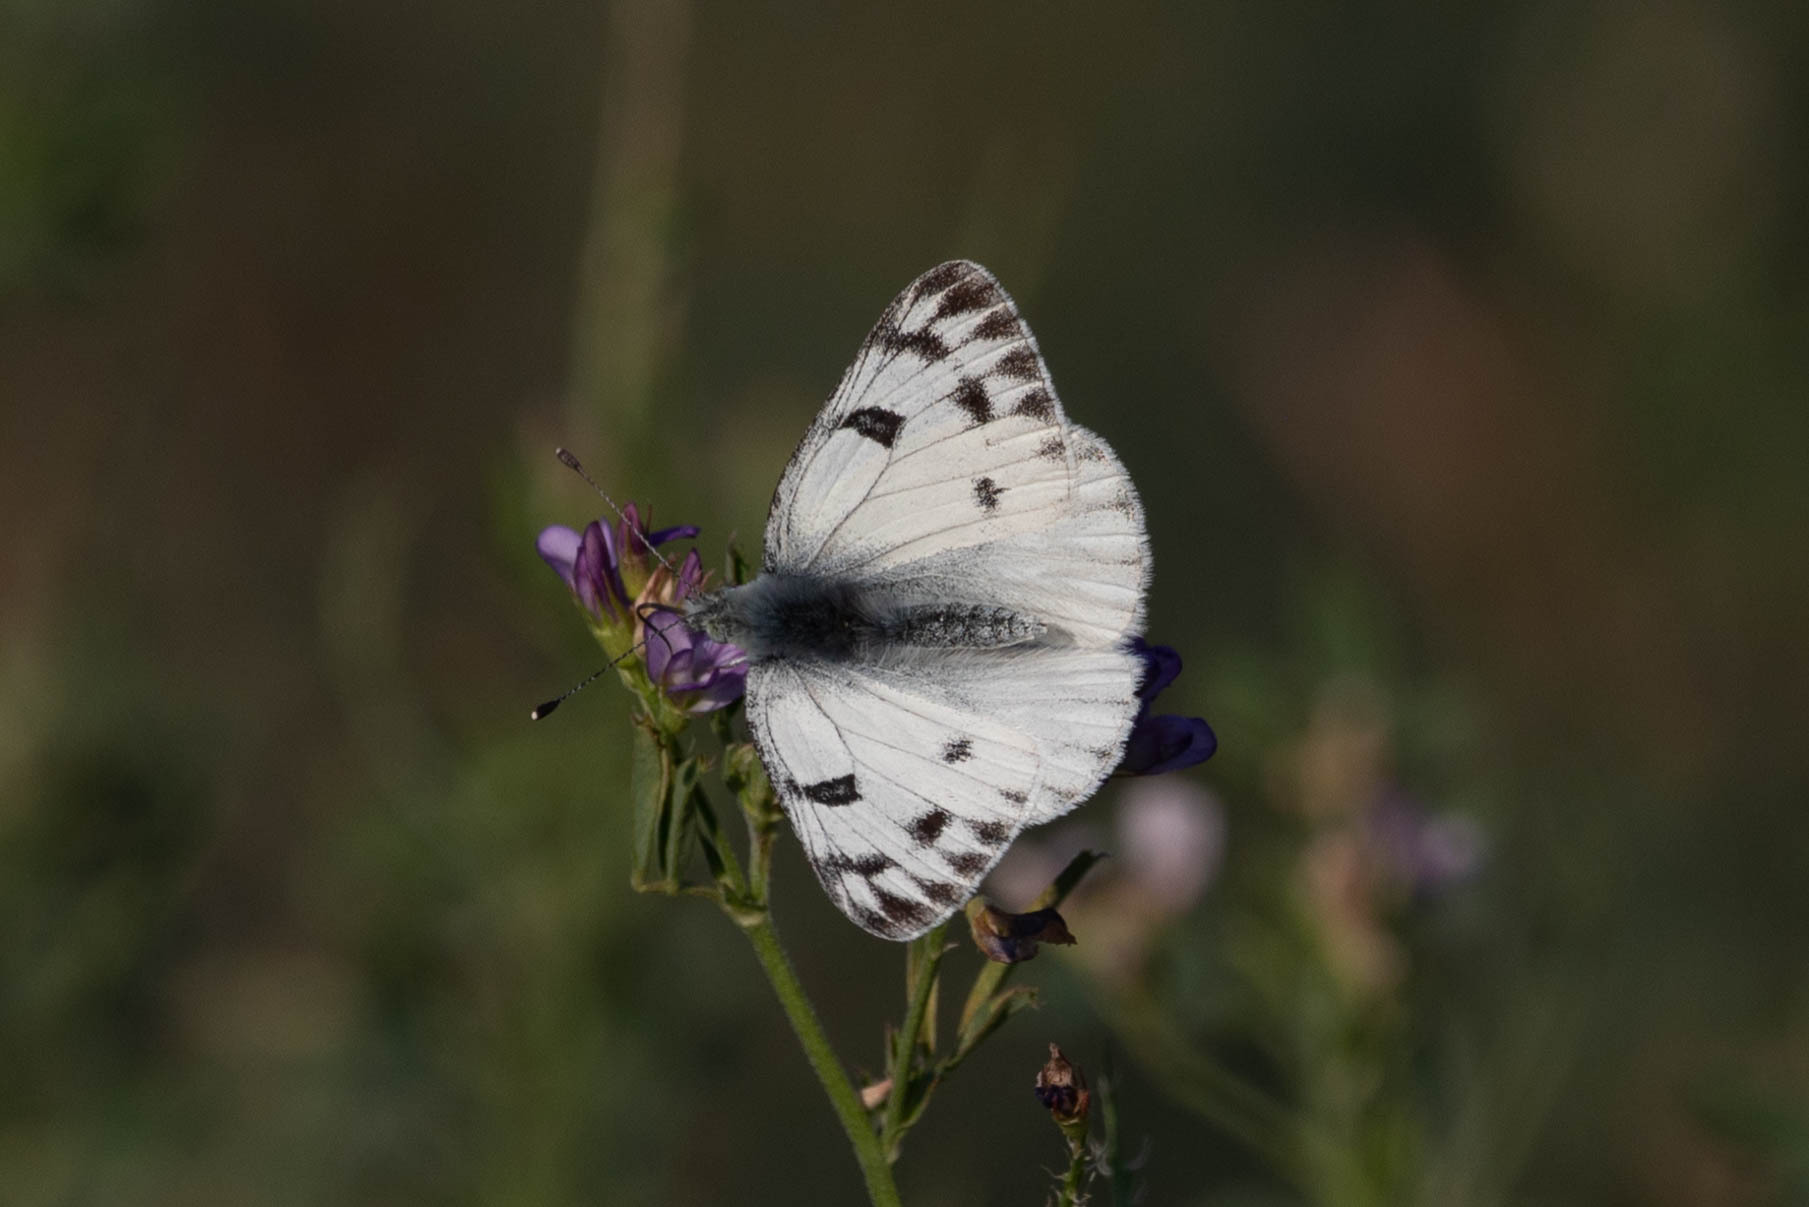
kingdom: Animalia
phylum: Arthropoda
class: Insecta
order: Lepidoptera
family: Pieridae
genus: Pontia
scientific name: Pontia occidentalis
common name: Western white
